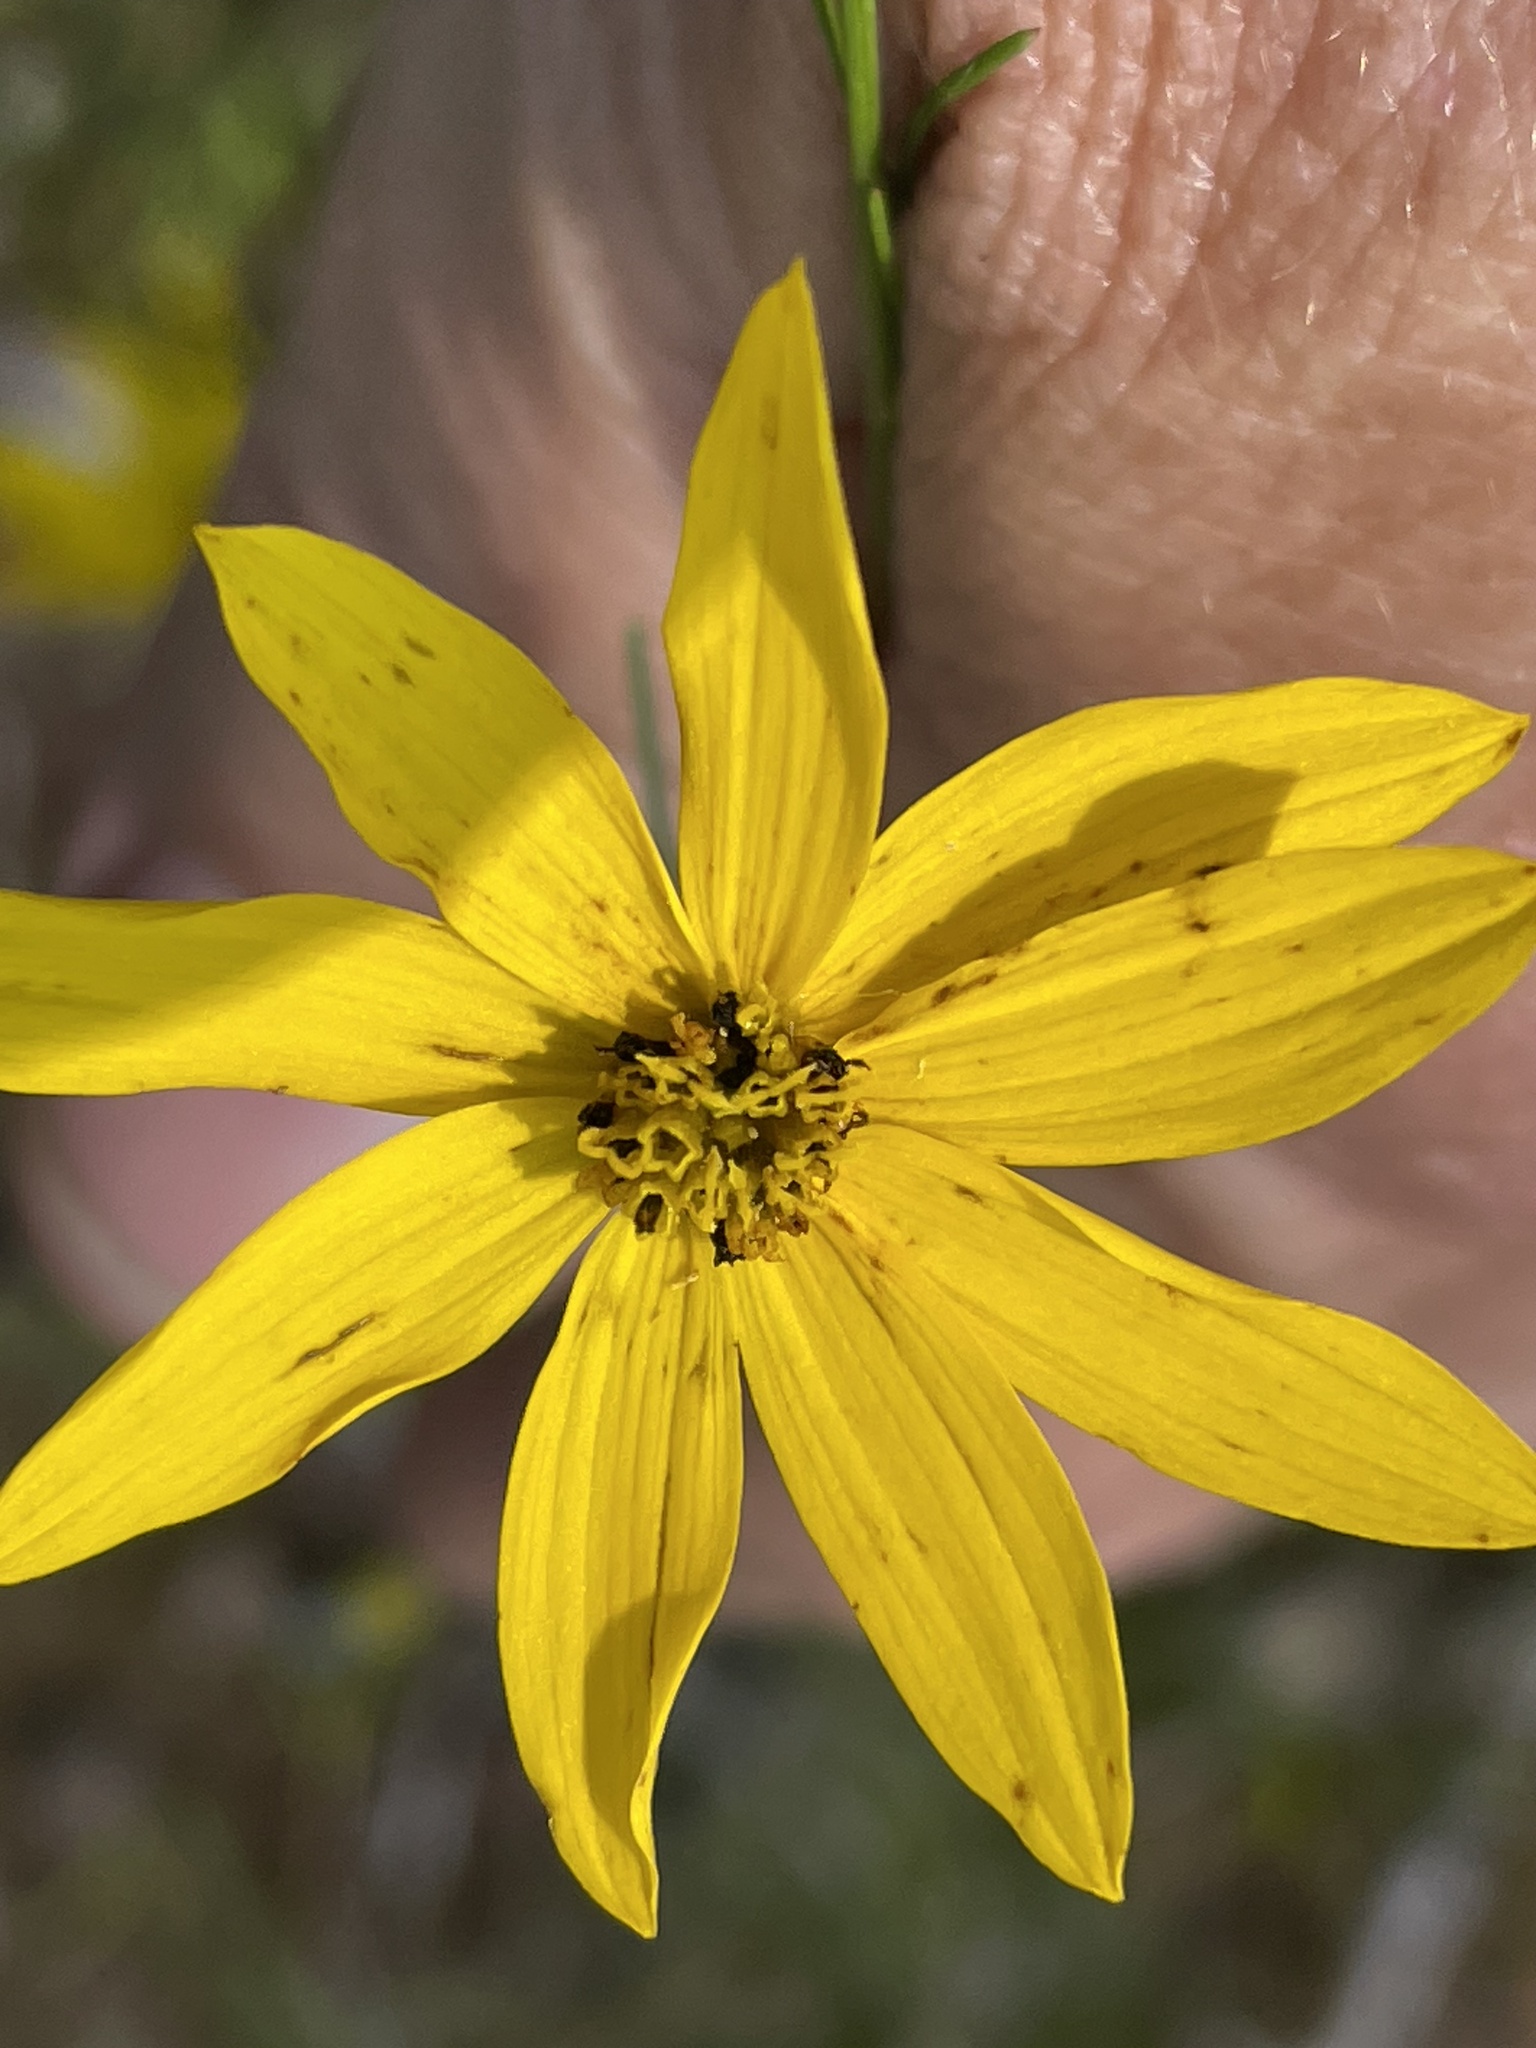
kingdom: Plantae
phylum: Tracheophyta
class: Magnoliopsida
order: Asterales
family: Asteraceae
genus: Coreopsis
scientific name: Coreopsis verticillata
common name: Whorled tickseed
